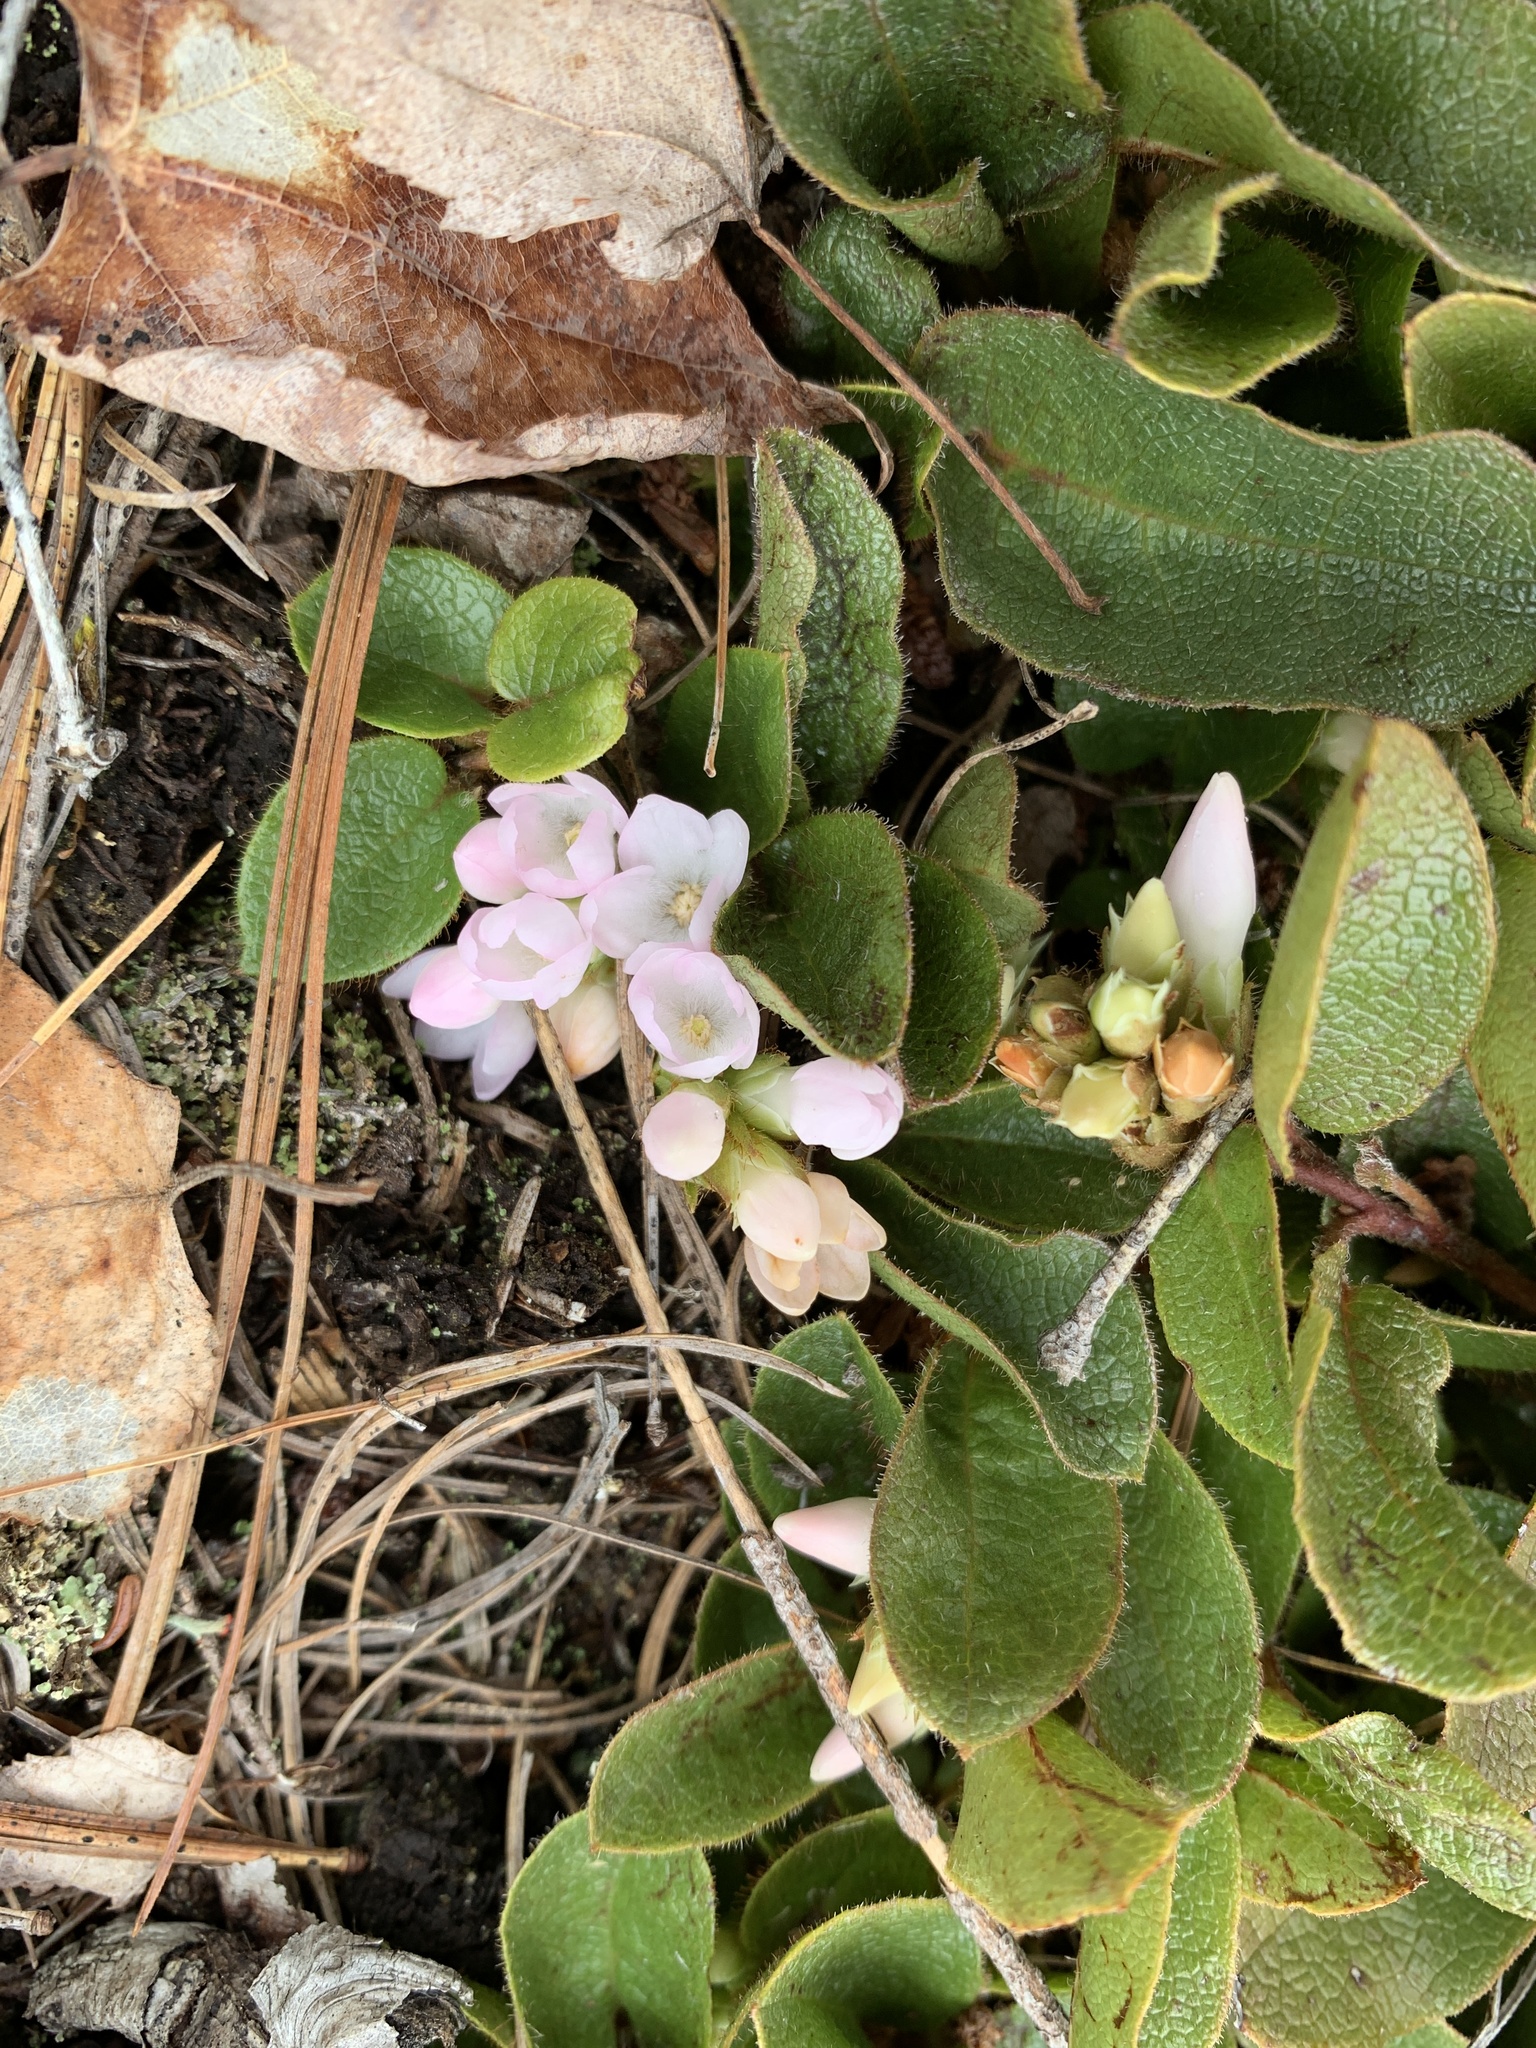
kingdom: Plantae
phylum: Tracheophyta
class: Magnoliopsida
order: Ericales
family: Ericaceae
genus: Epigaea
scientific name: Epigaea repens
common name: Gravelroot
